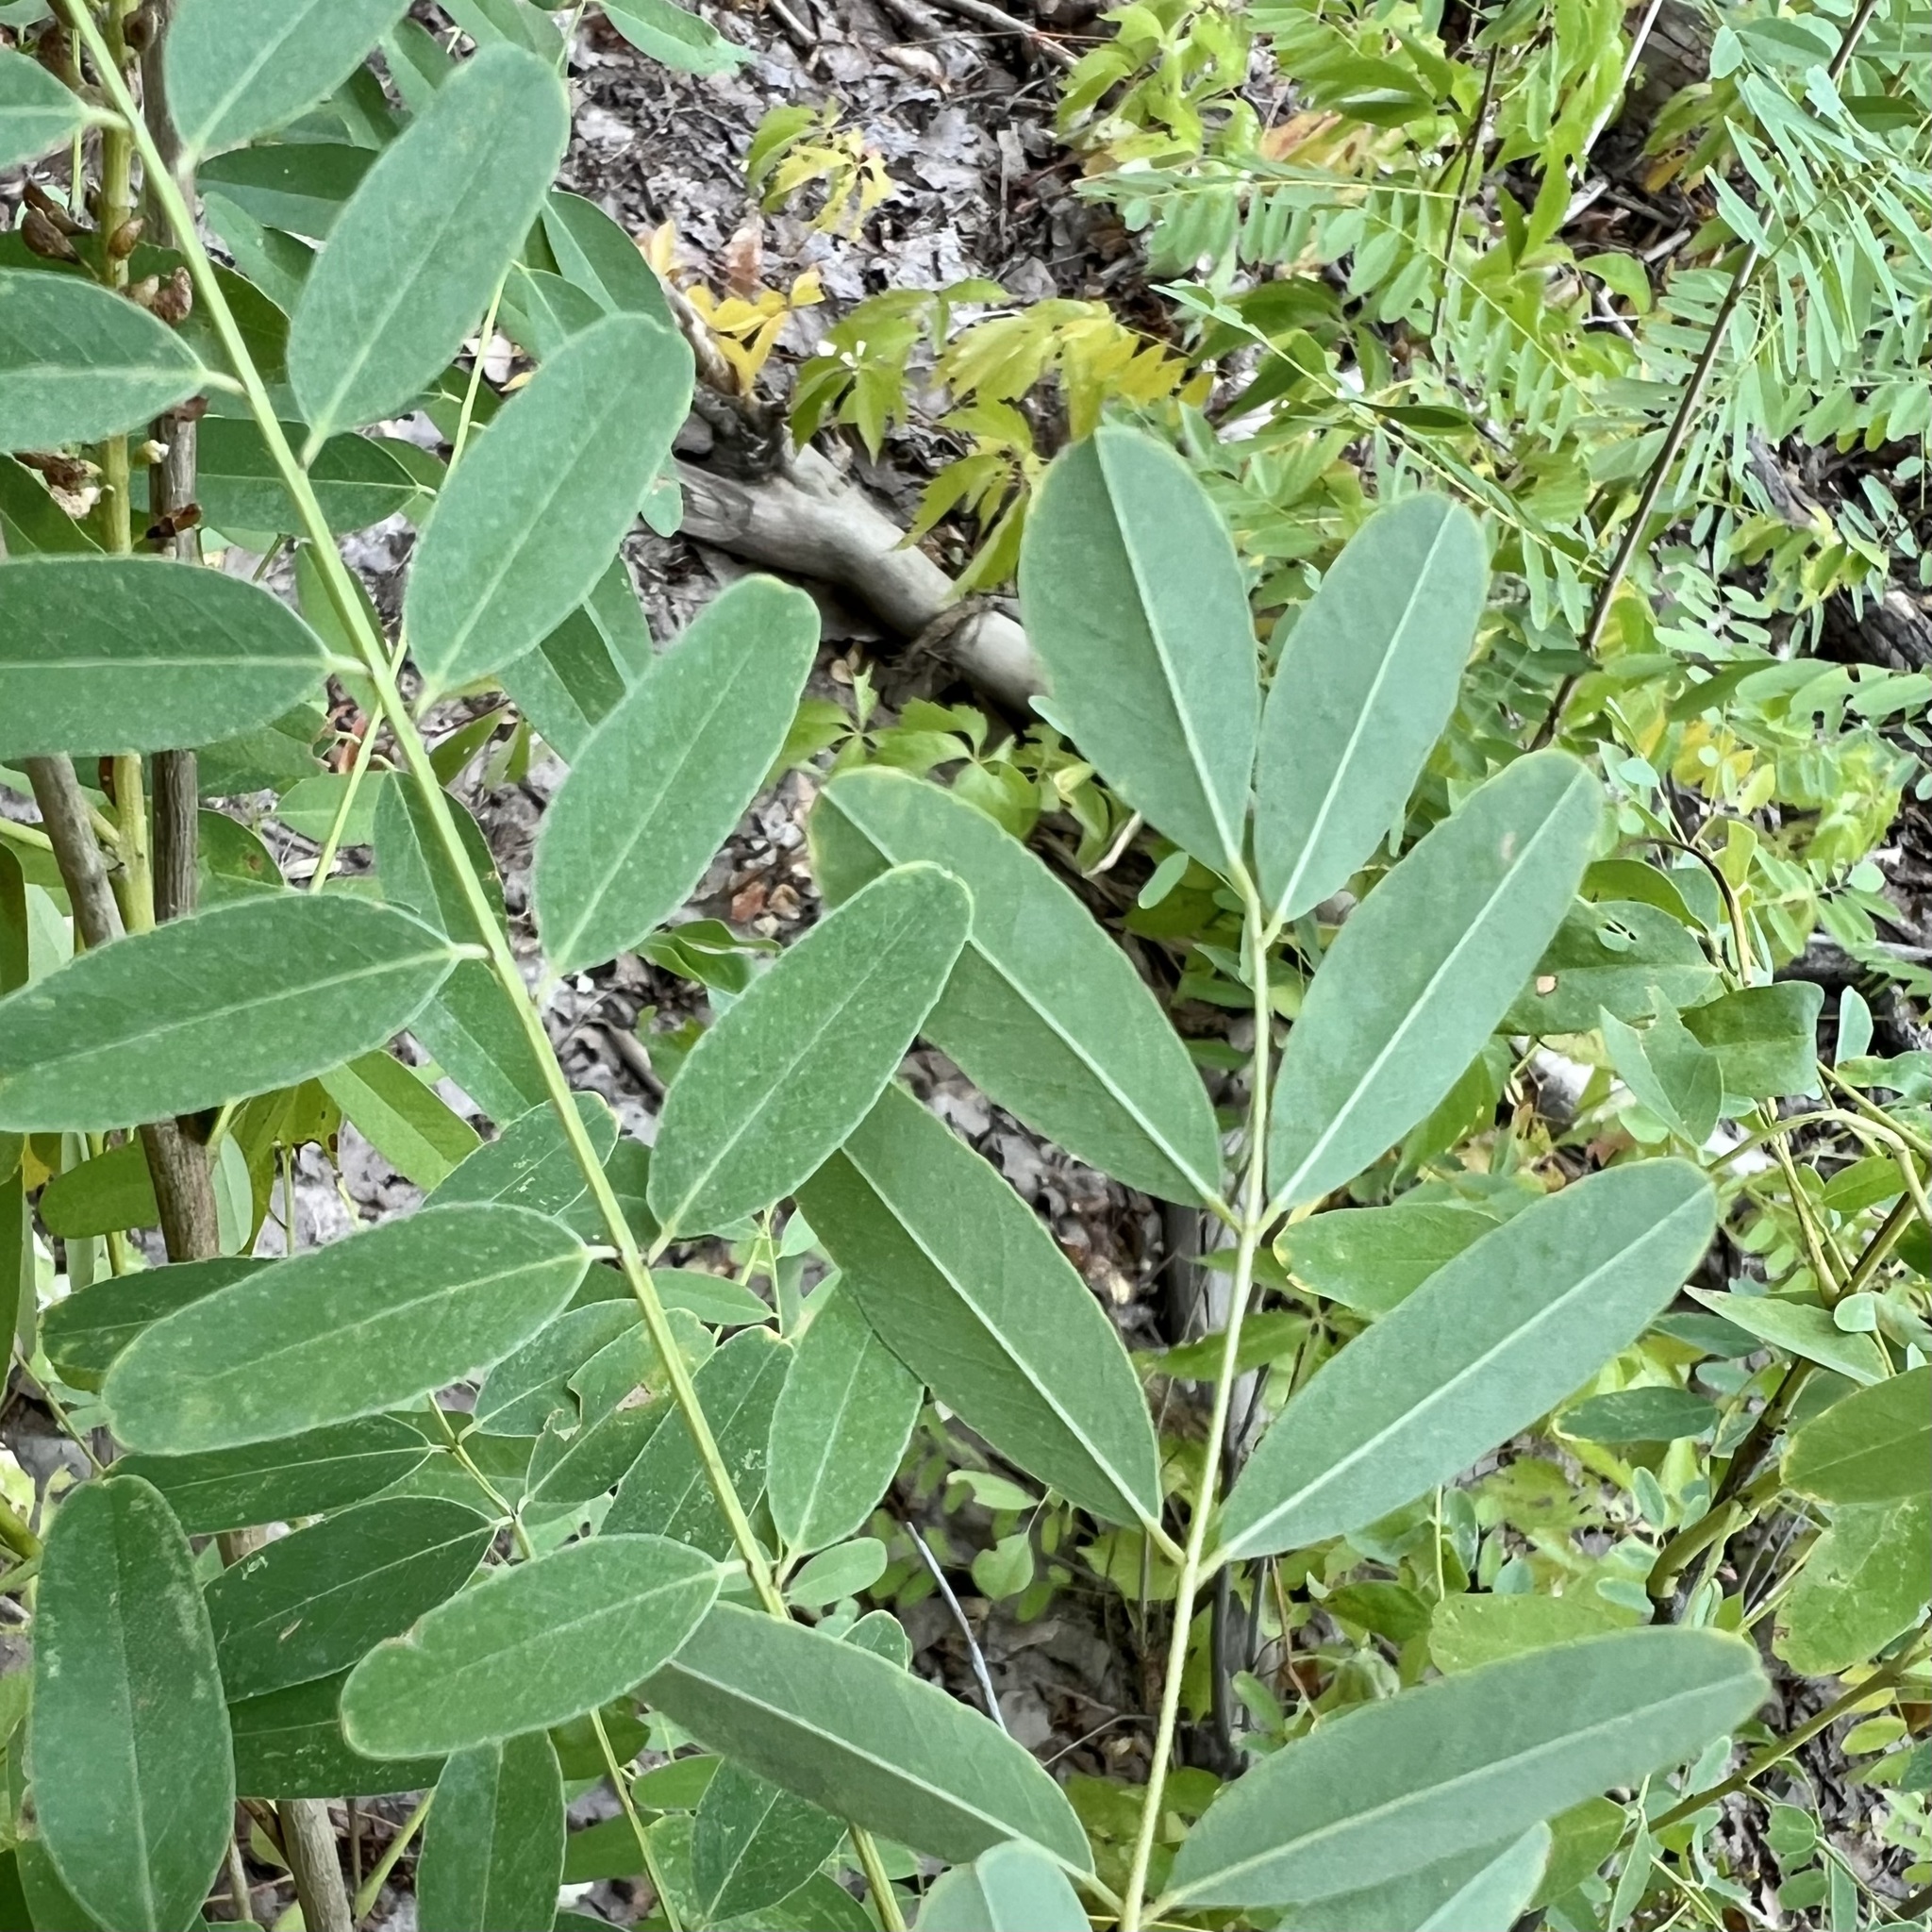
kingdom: Plantae
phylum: Tracheophyta
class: Magnoliopsida
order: Fabales
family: Fabaceae
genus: Amorpha
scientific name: Amorpha fruticosa
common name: False indigo
